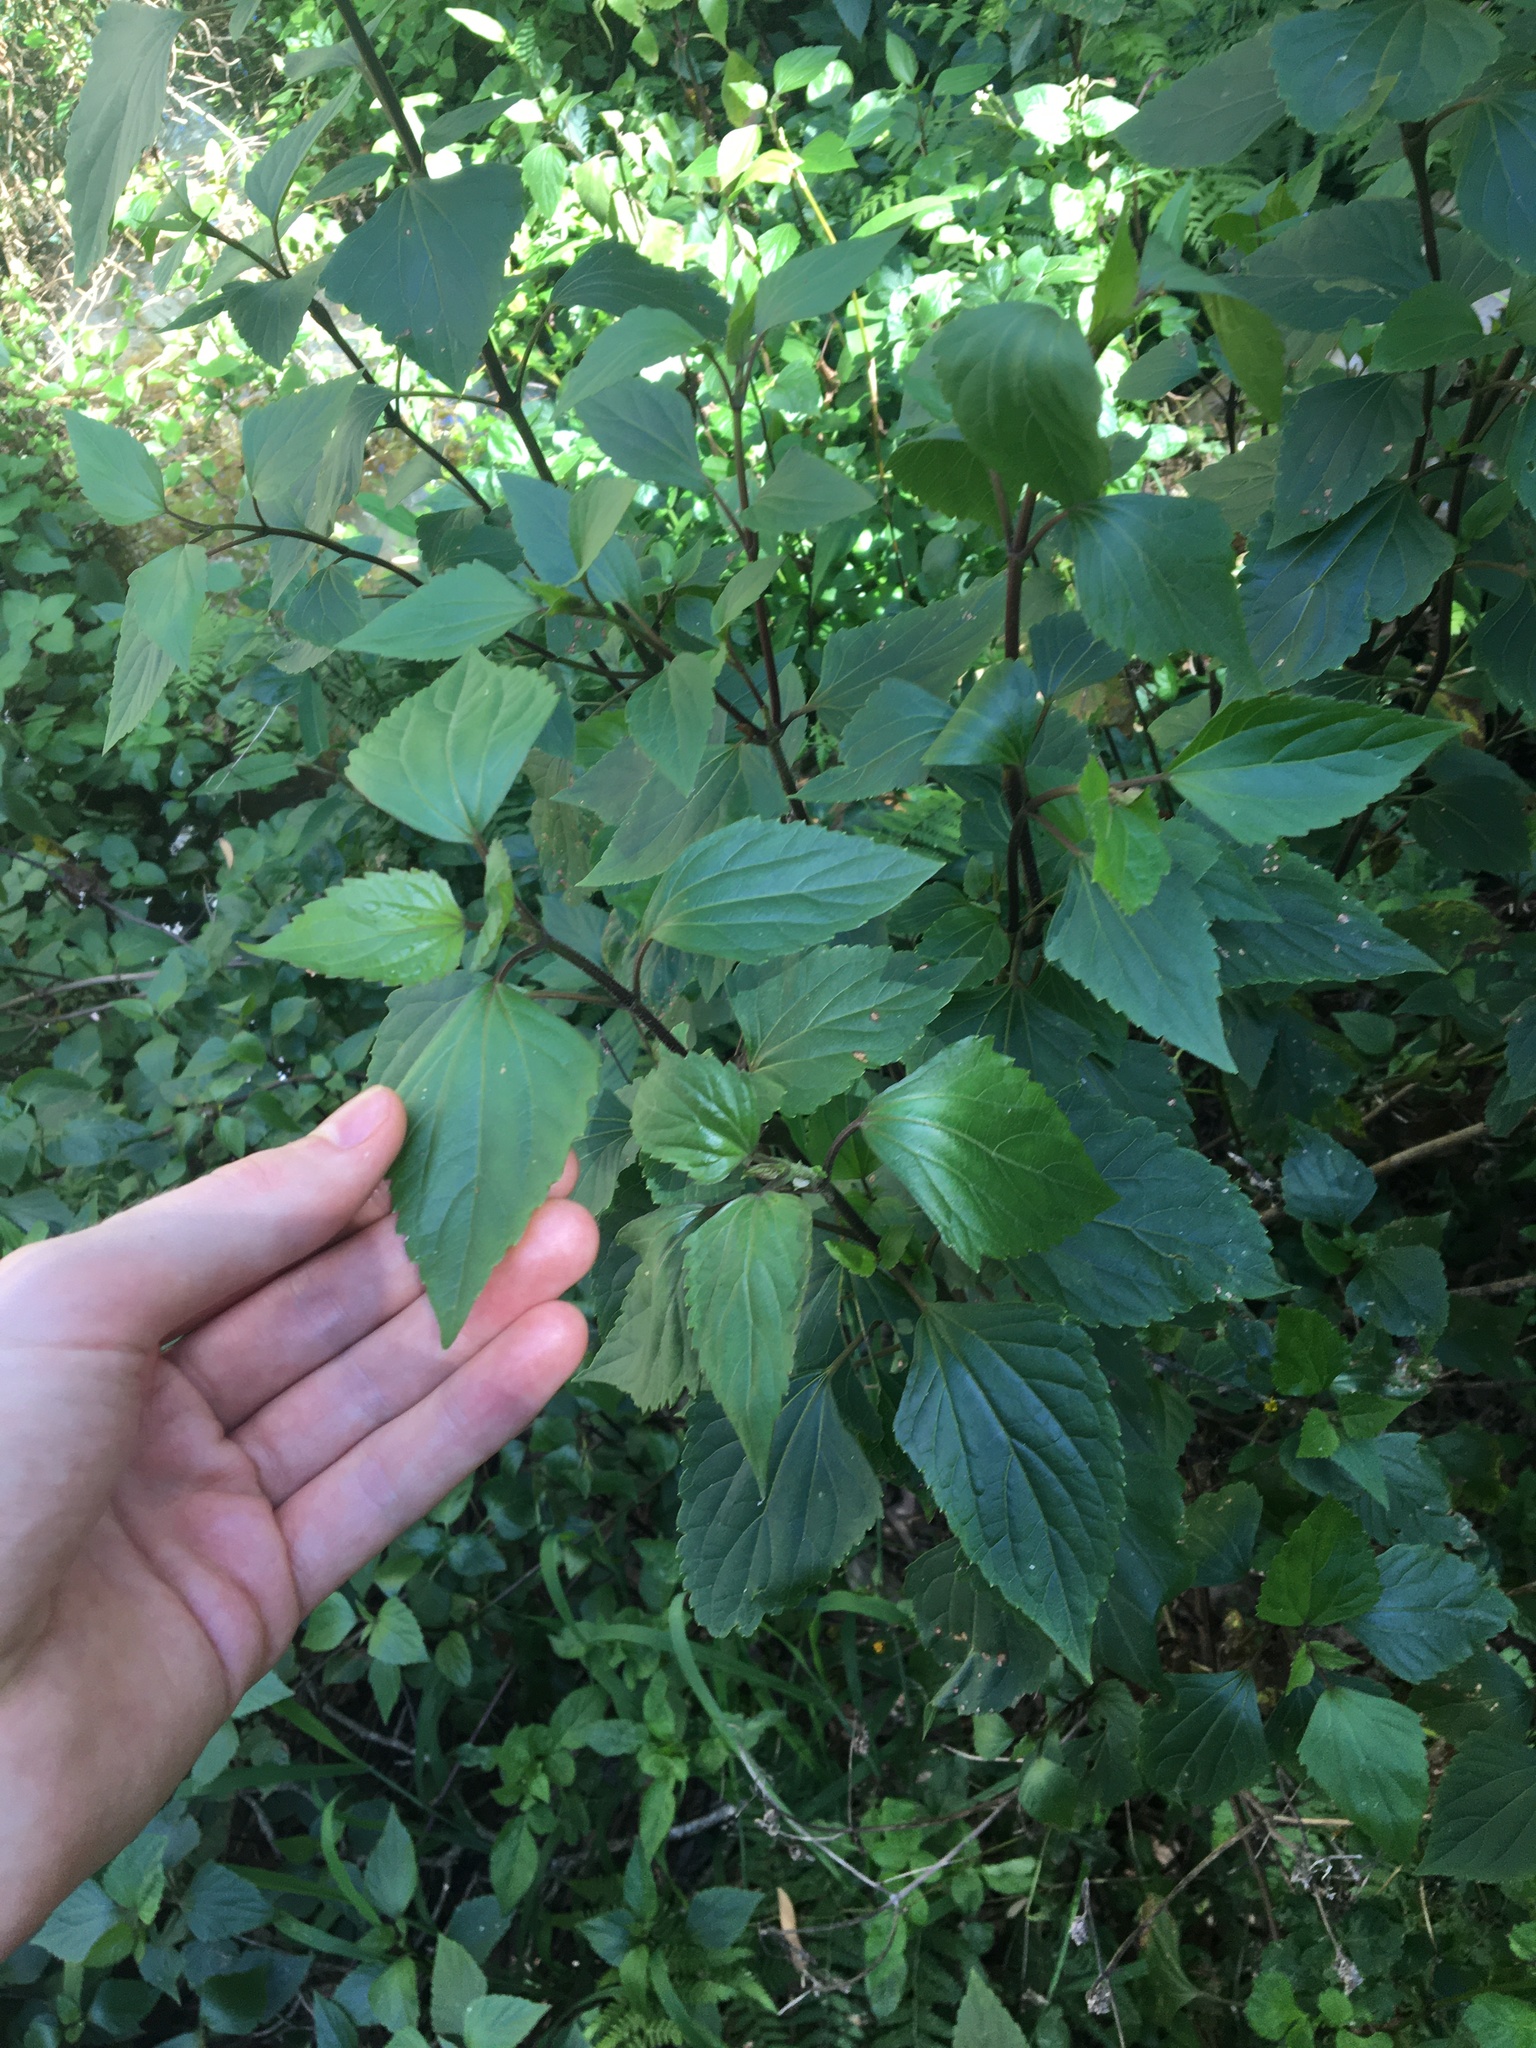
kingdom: Plantae
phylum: Tracheophyta
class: Magnoliopsida
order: Asterales
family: Asteraceae
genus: Ageratina
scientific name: Ageratina adenophora
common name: Sticky snakeroot
